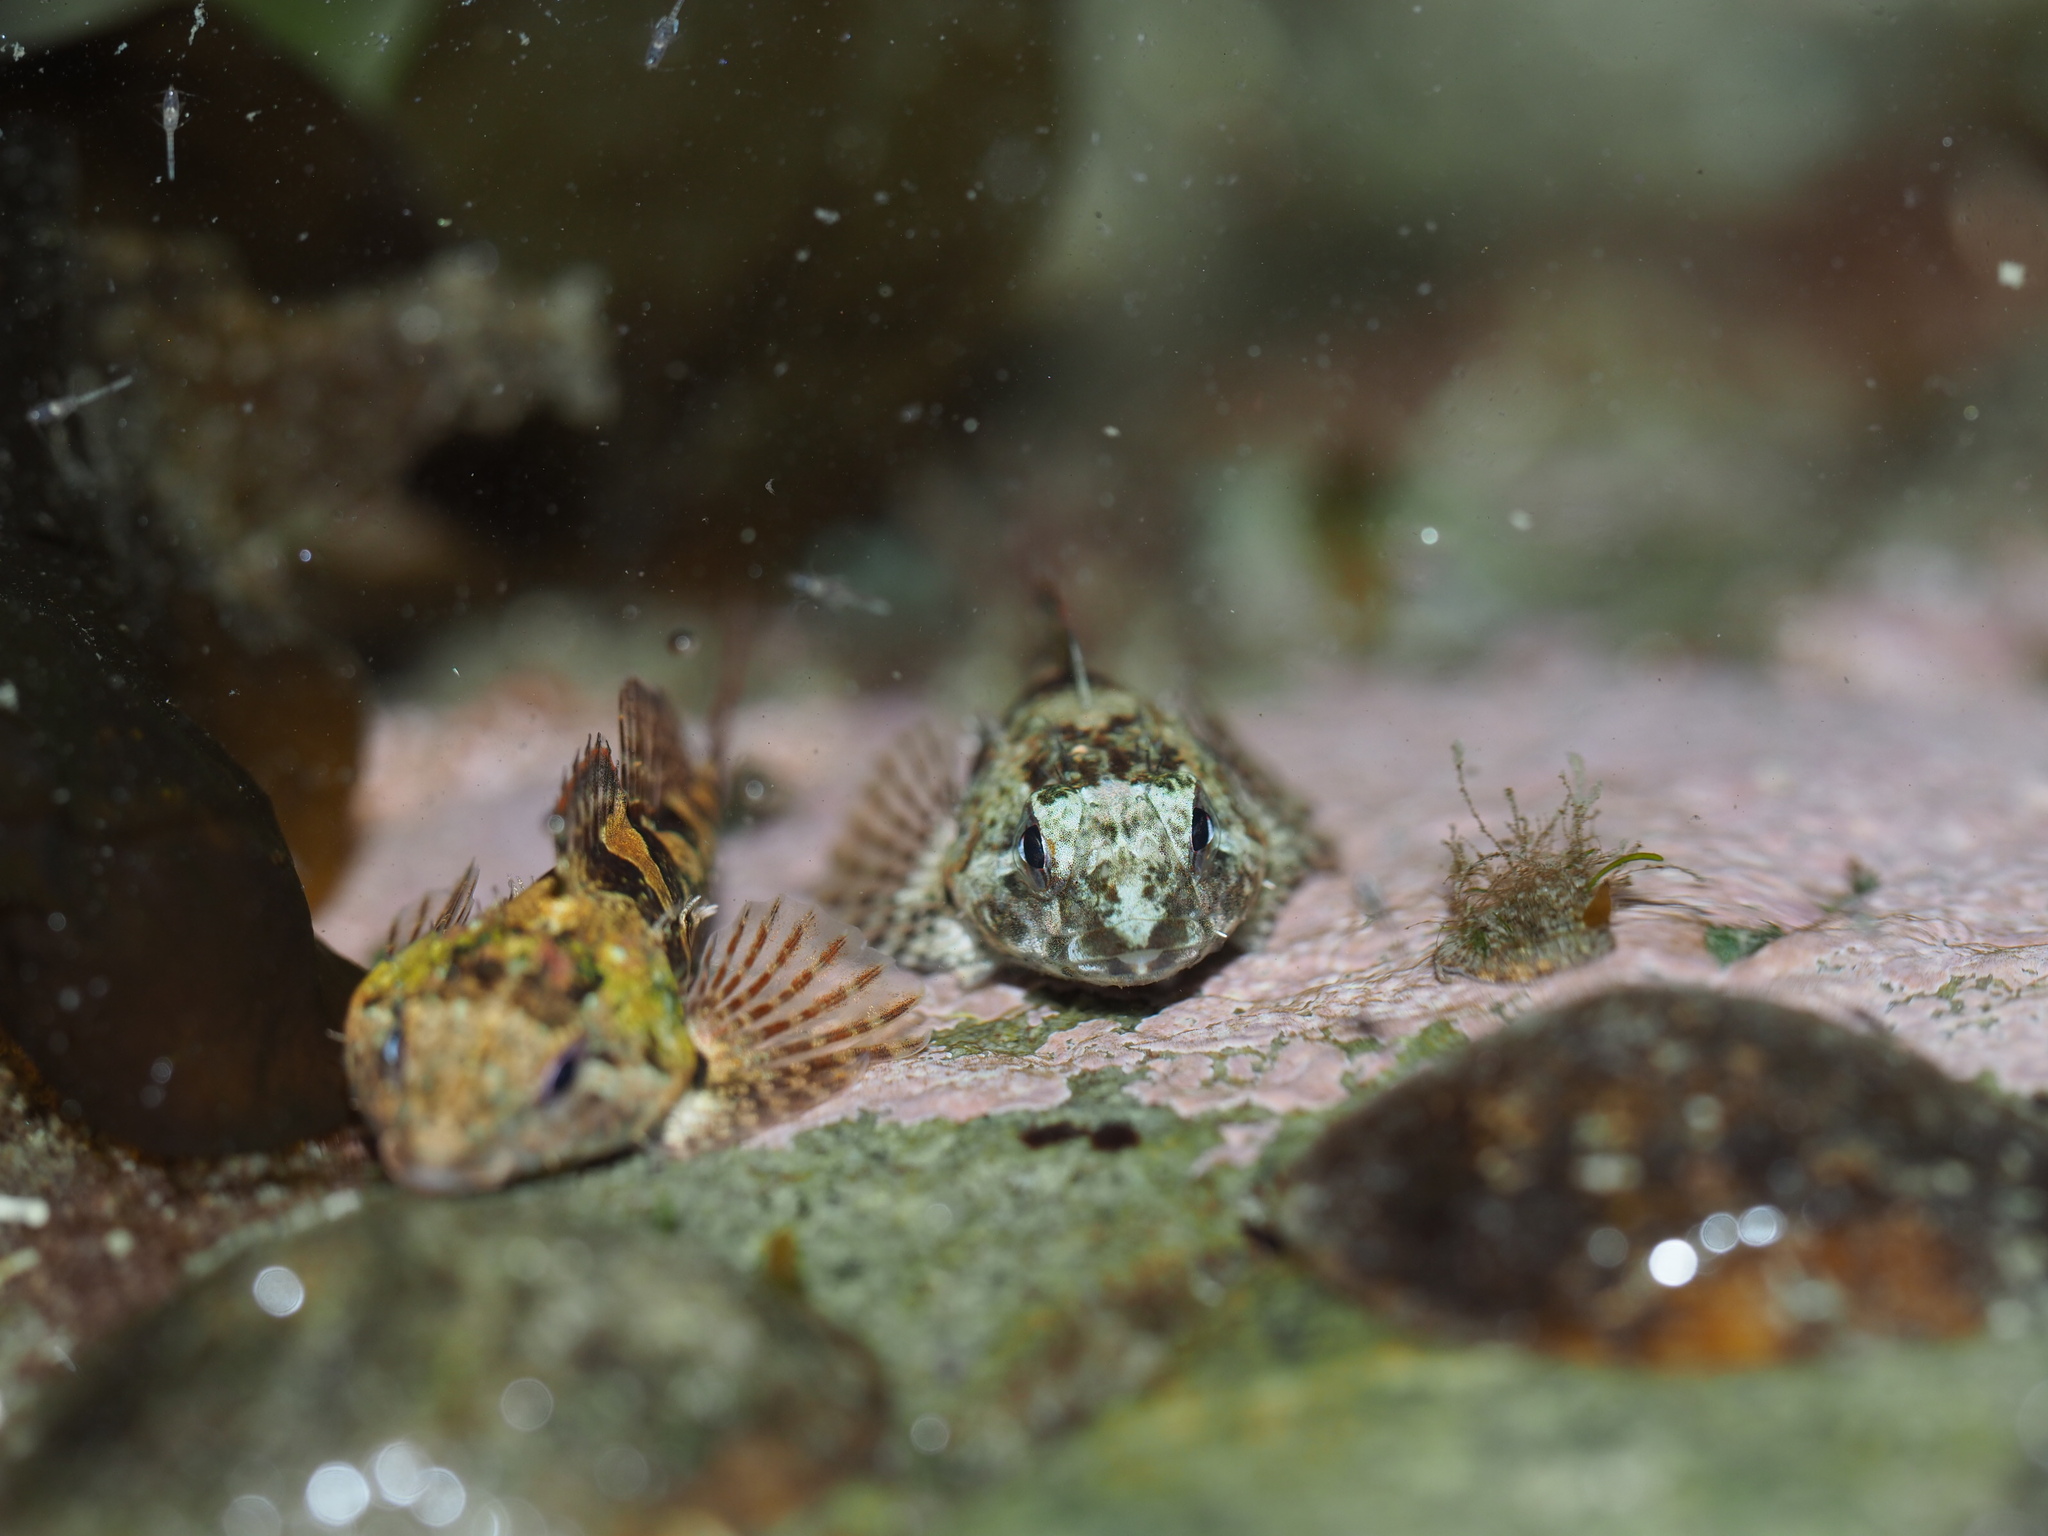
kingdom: Animalia
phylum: Chordata
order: Scorpaeniformes
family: Cottidae
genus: Oligocottus
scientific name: Oligocottus maculosus
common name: Tidepool sculpin
